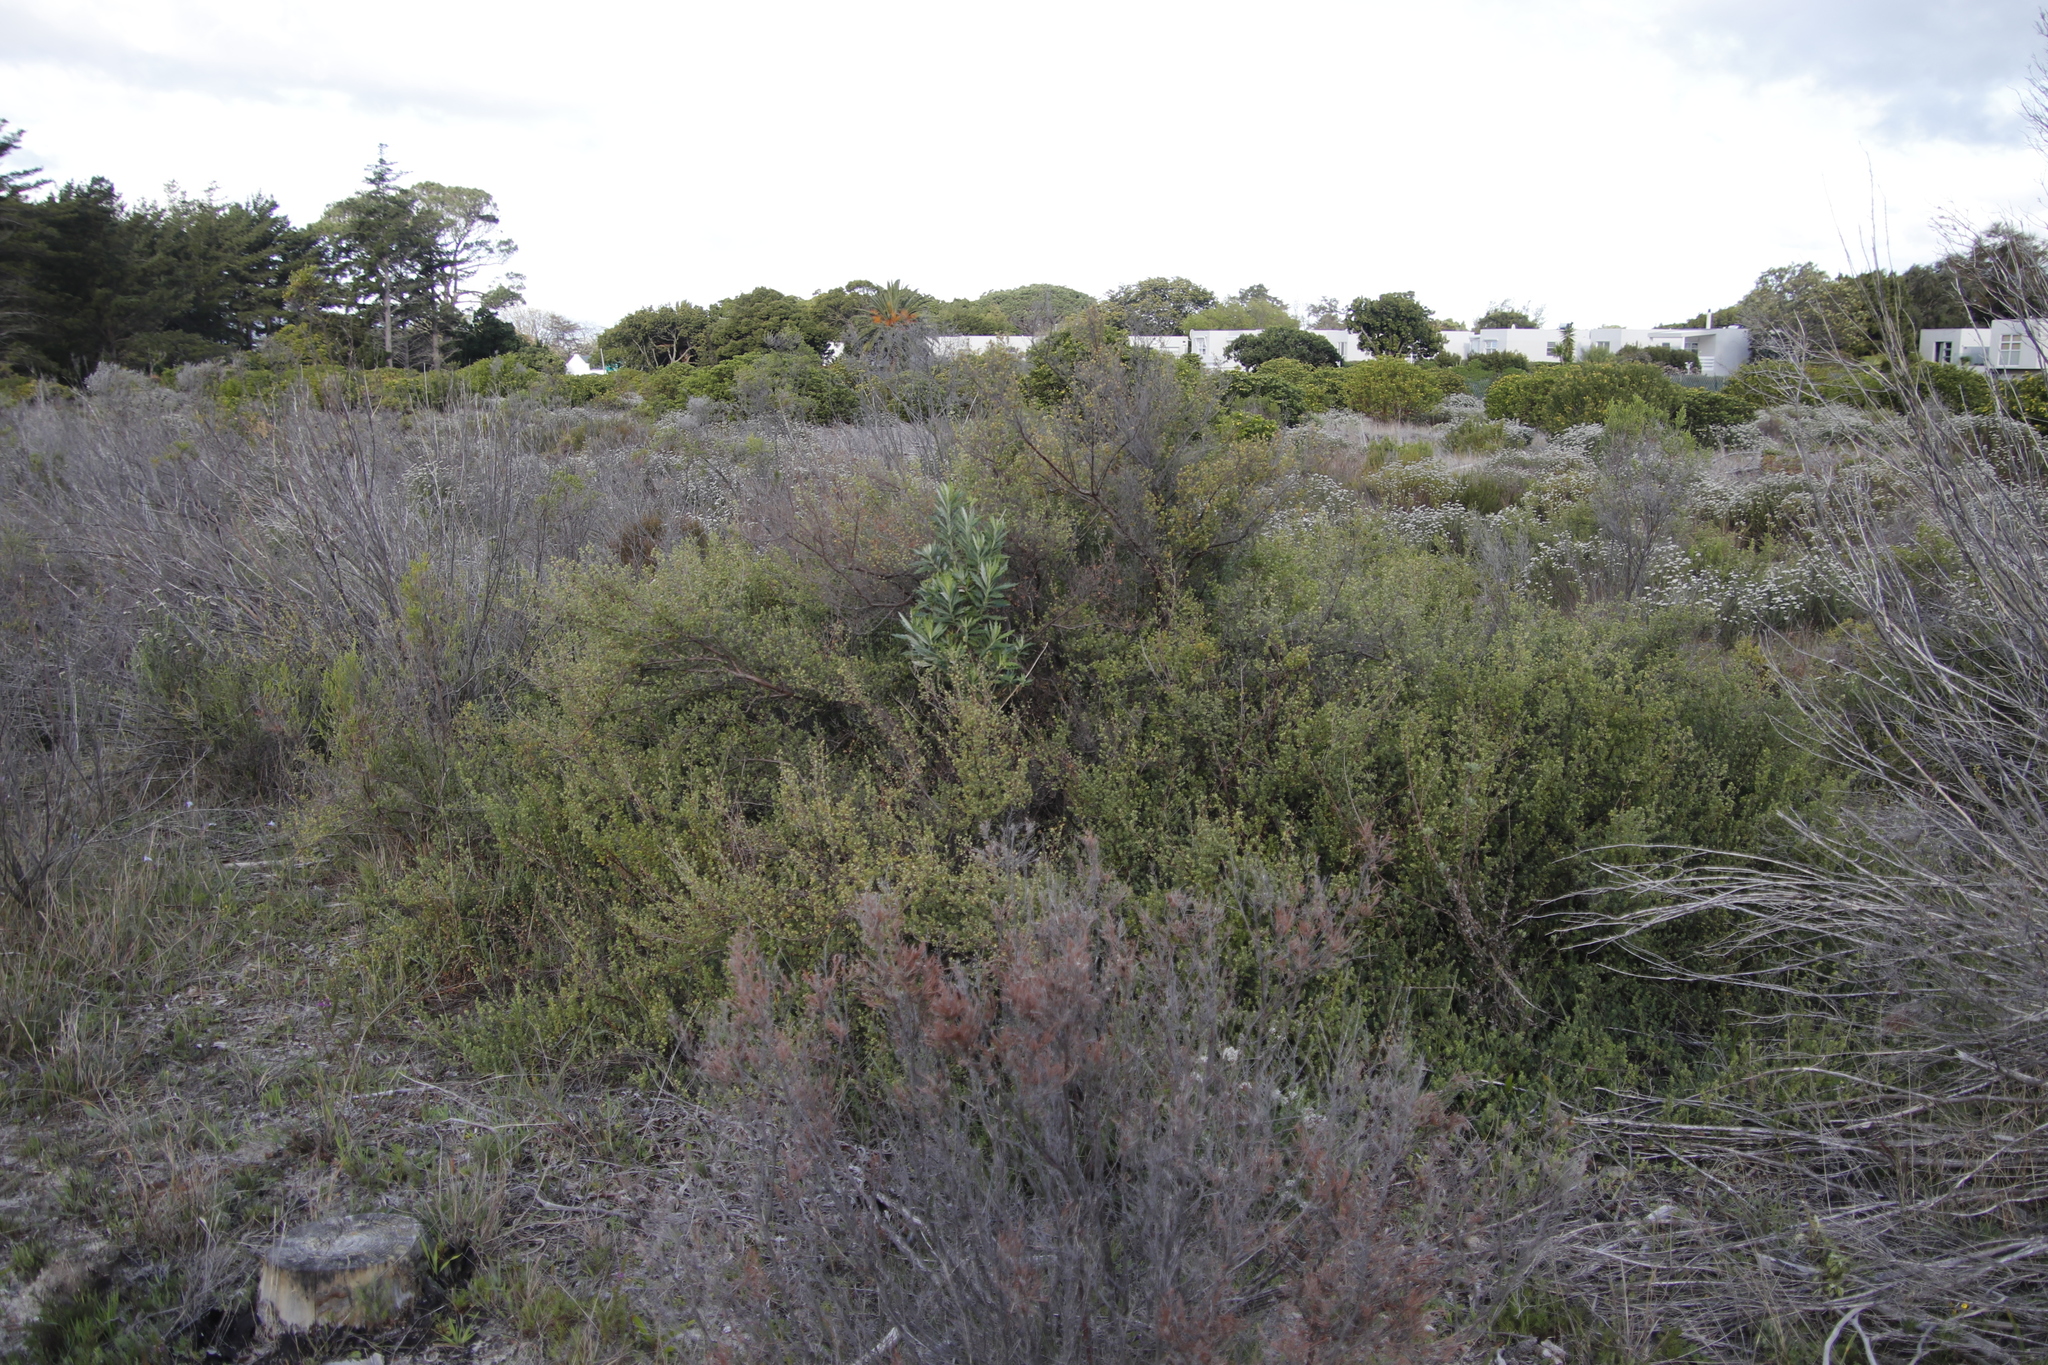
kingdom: Plantae
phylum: Tracheophyta
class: Magnoliopsida
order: Rosales
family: Rosaceae
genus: Cliffortia
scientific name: Cliffortia obcordata
